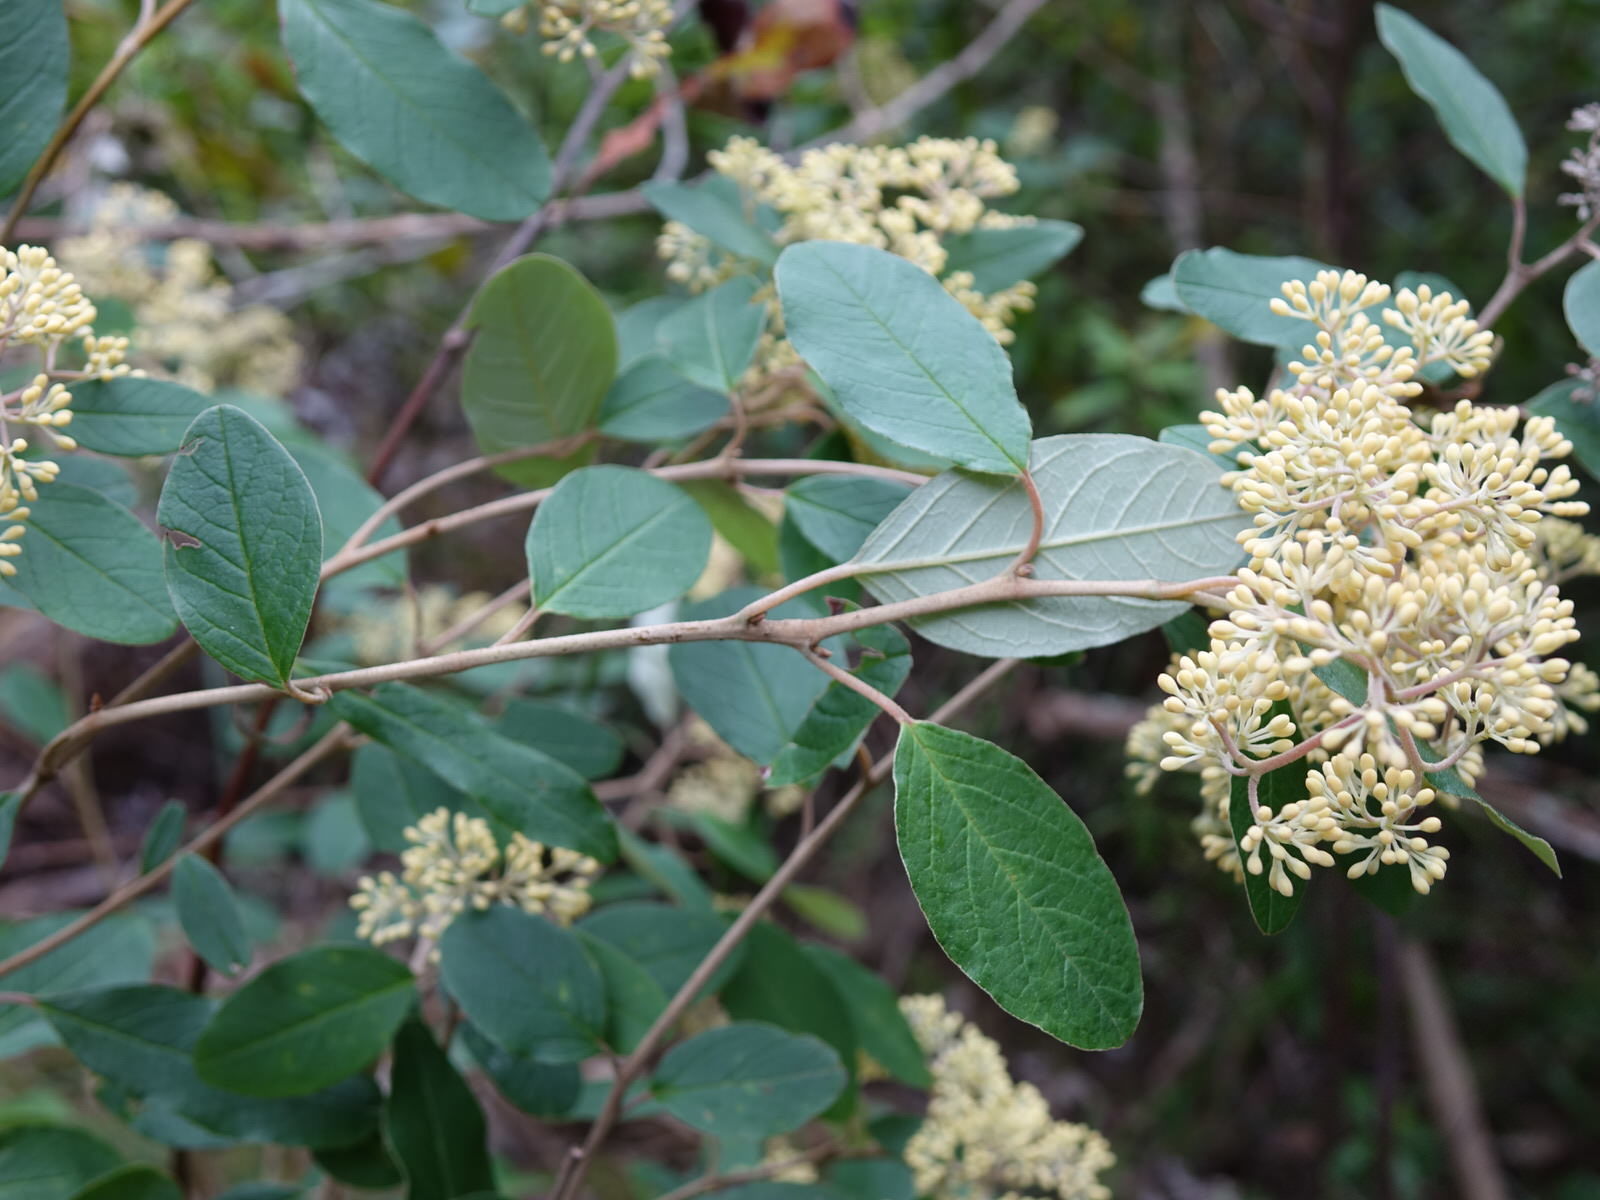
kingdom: Plantae
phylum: Tracheophyta
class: Magnoliopsida
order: Rosales
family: Rhamnaceae
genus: Pomaderris
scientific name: Pomaderris kumeraho
